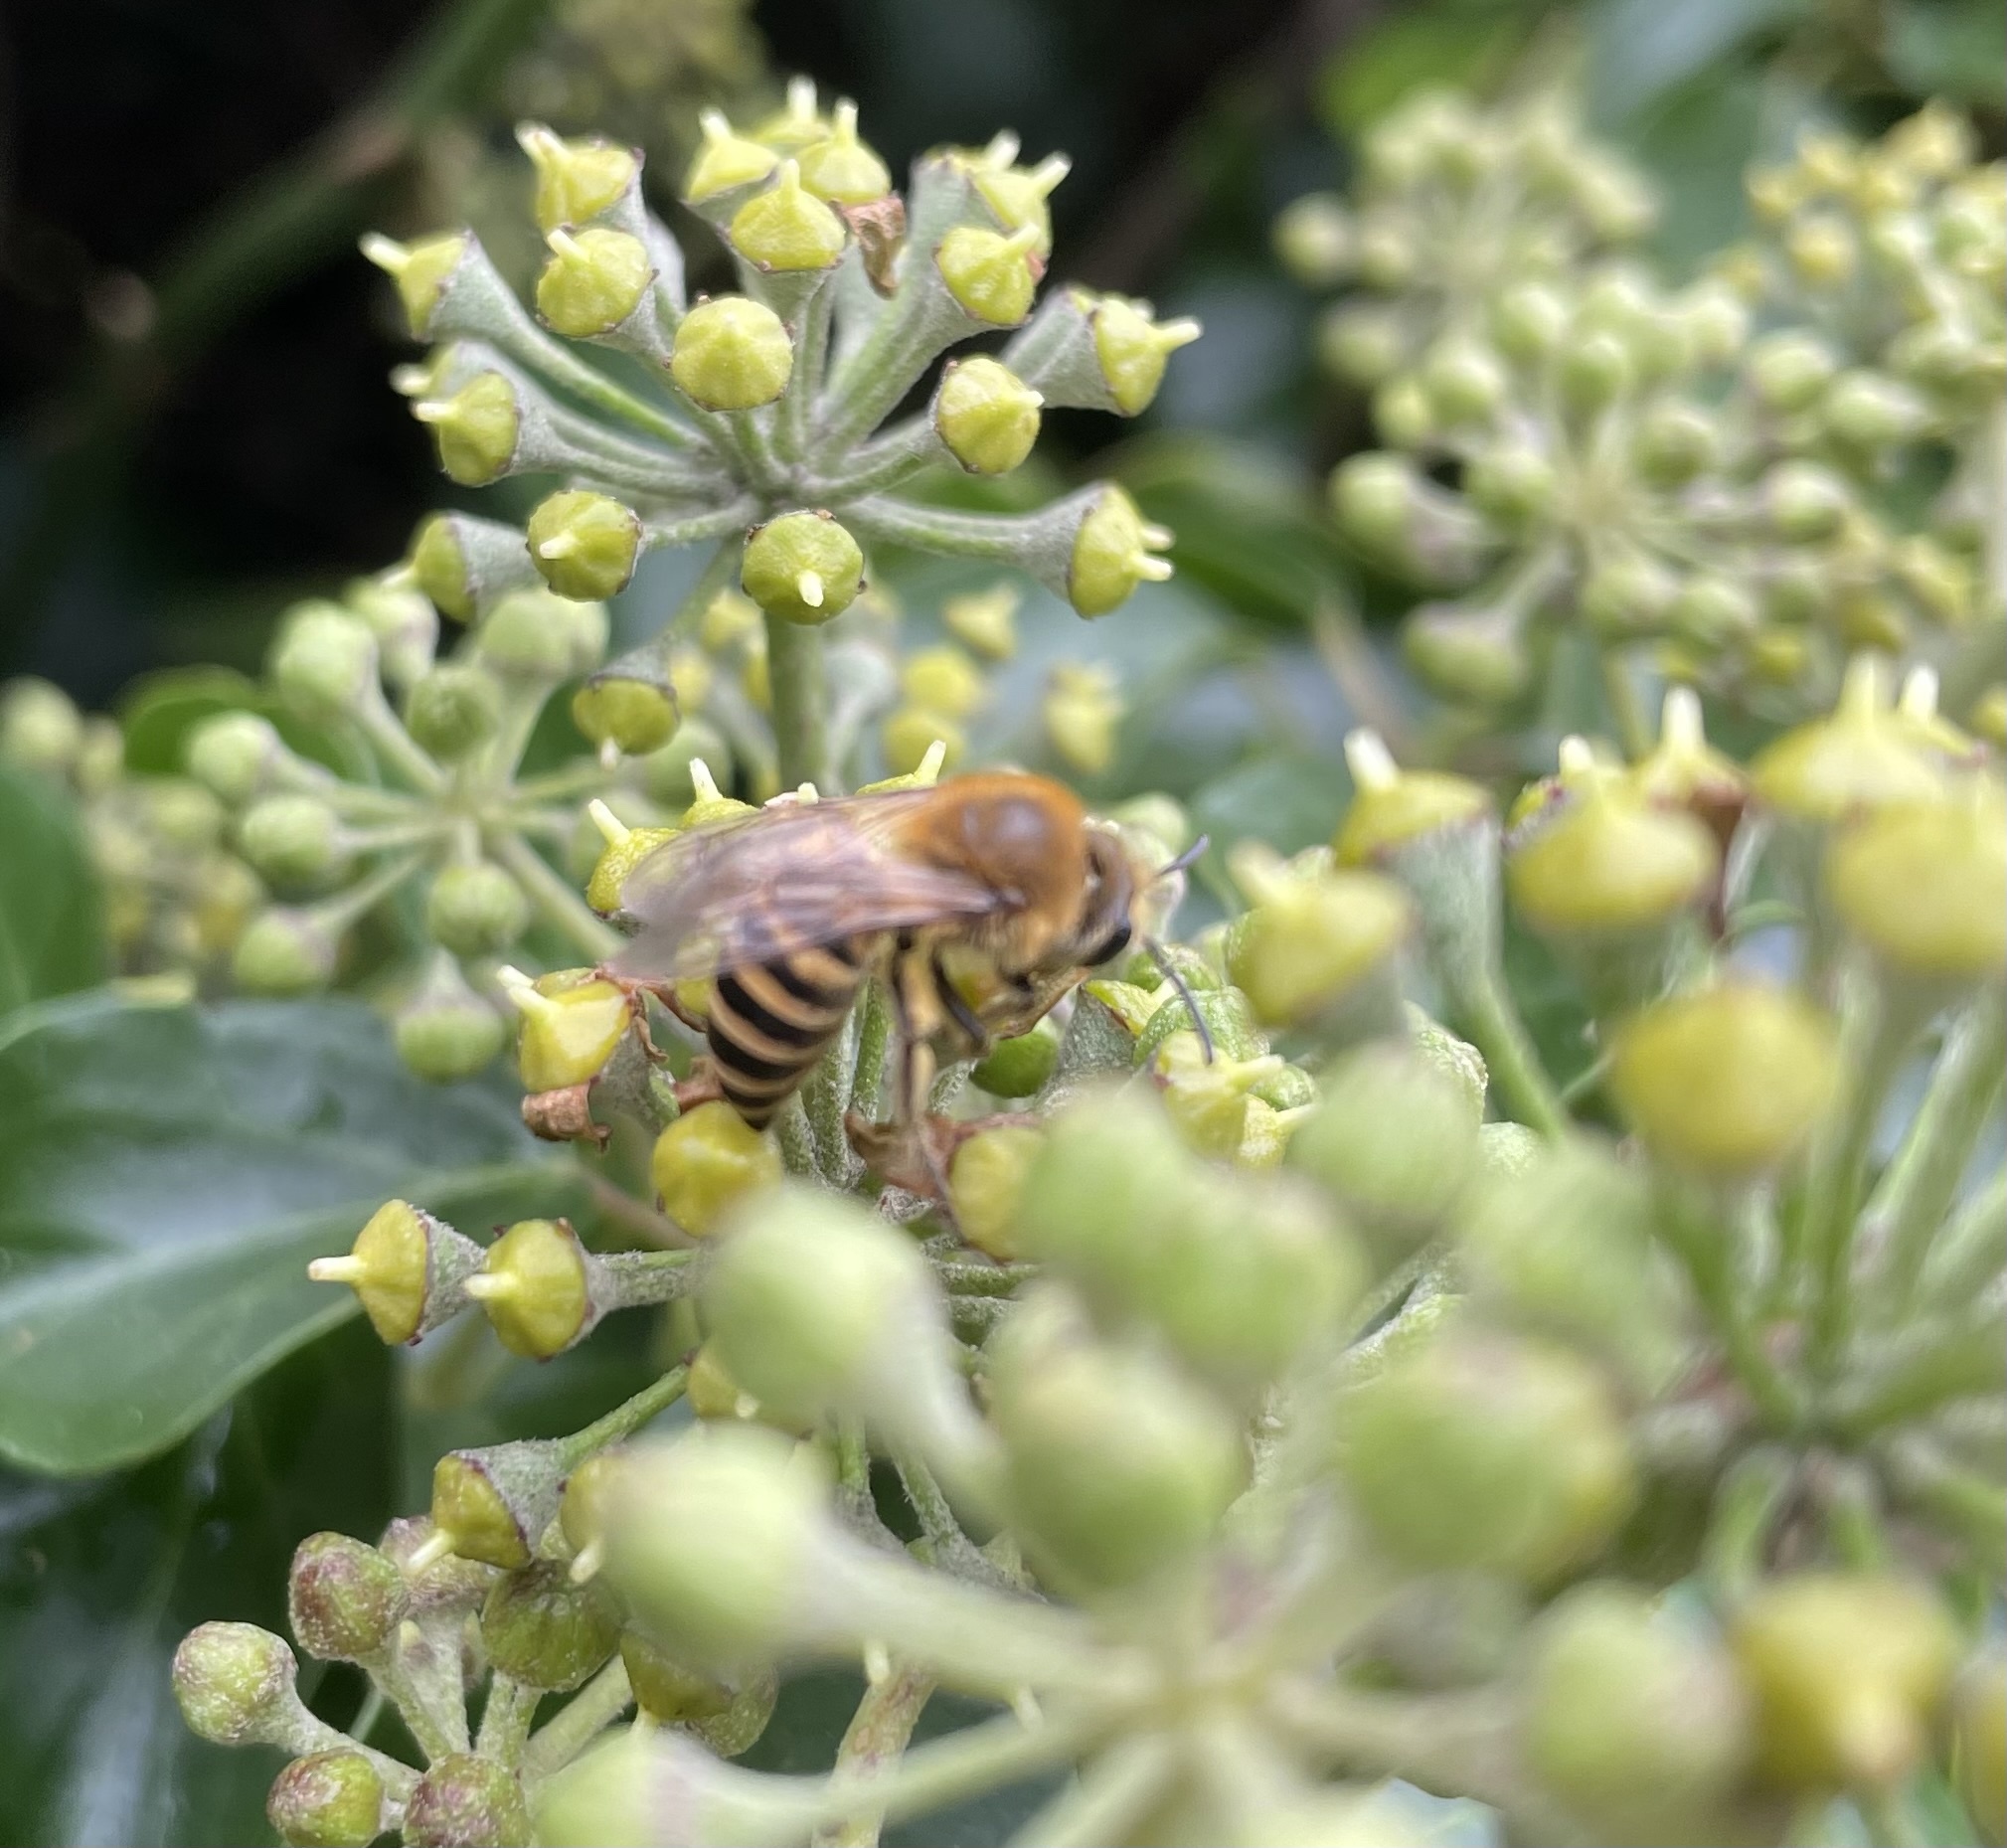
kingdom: Animalia
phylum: Arthropoda
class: Insecta
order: Hymenoptera
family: Colletidae
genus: Colletes
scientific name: Colletes hederae
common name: Ivy bee
